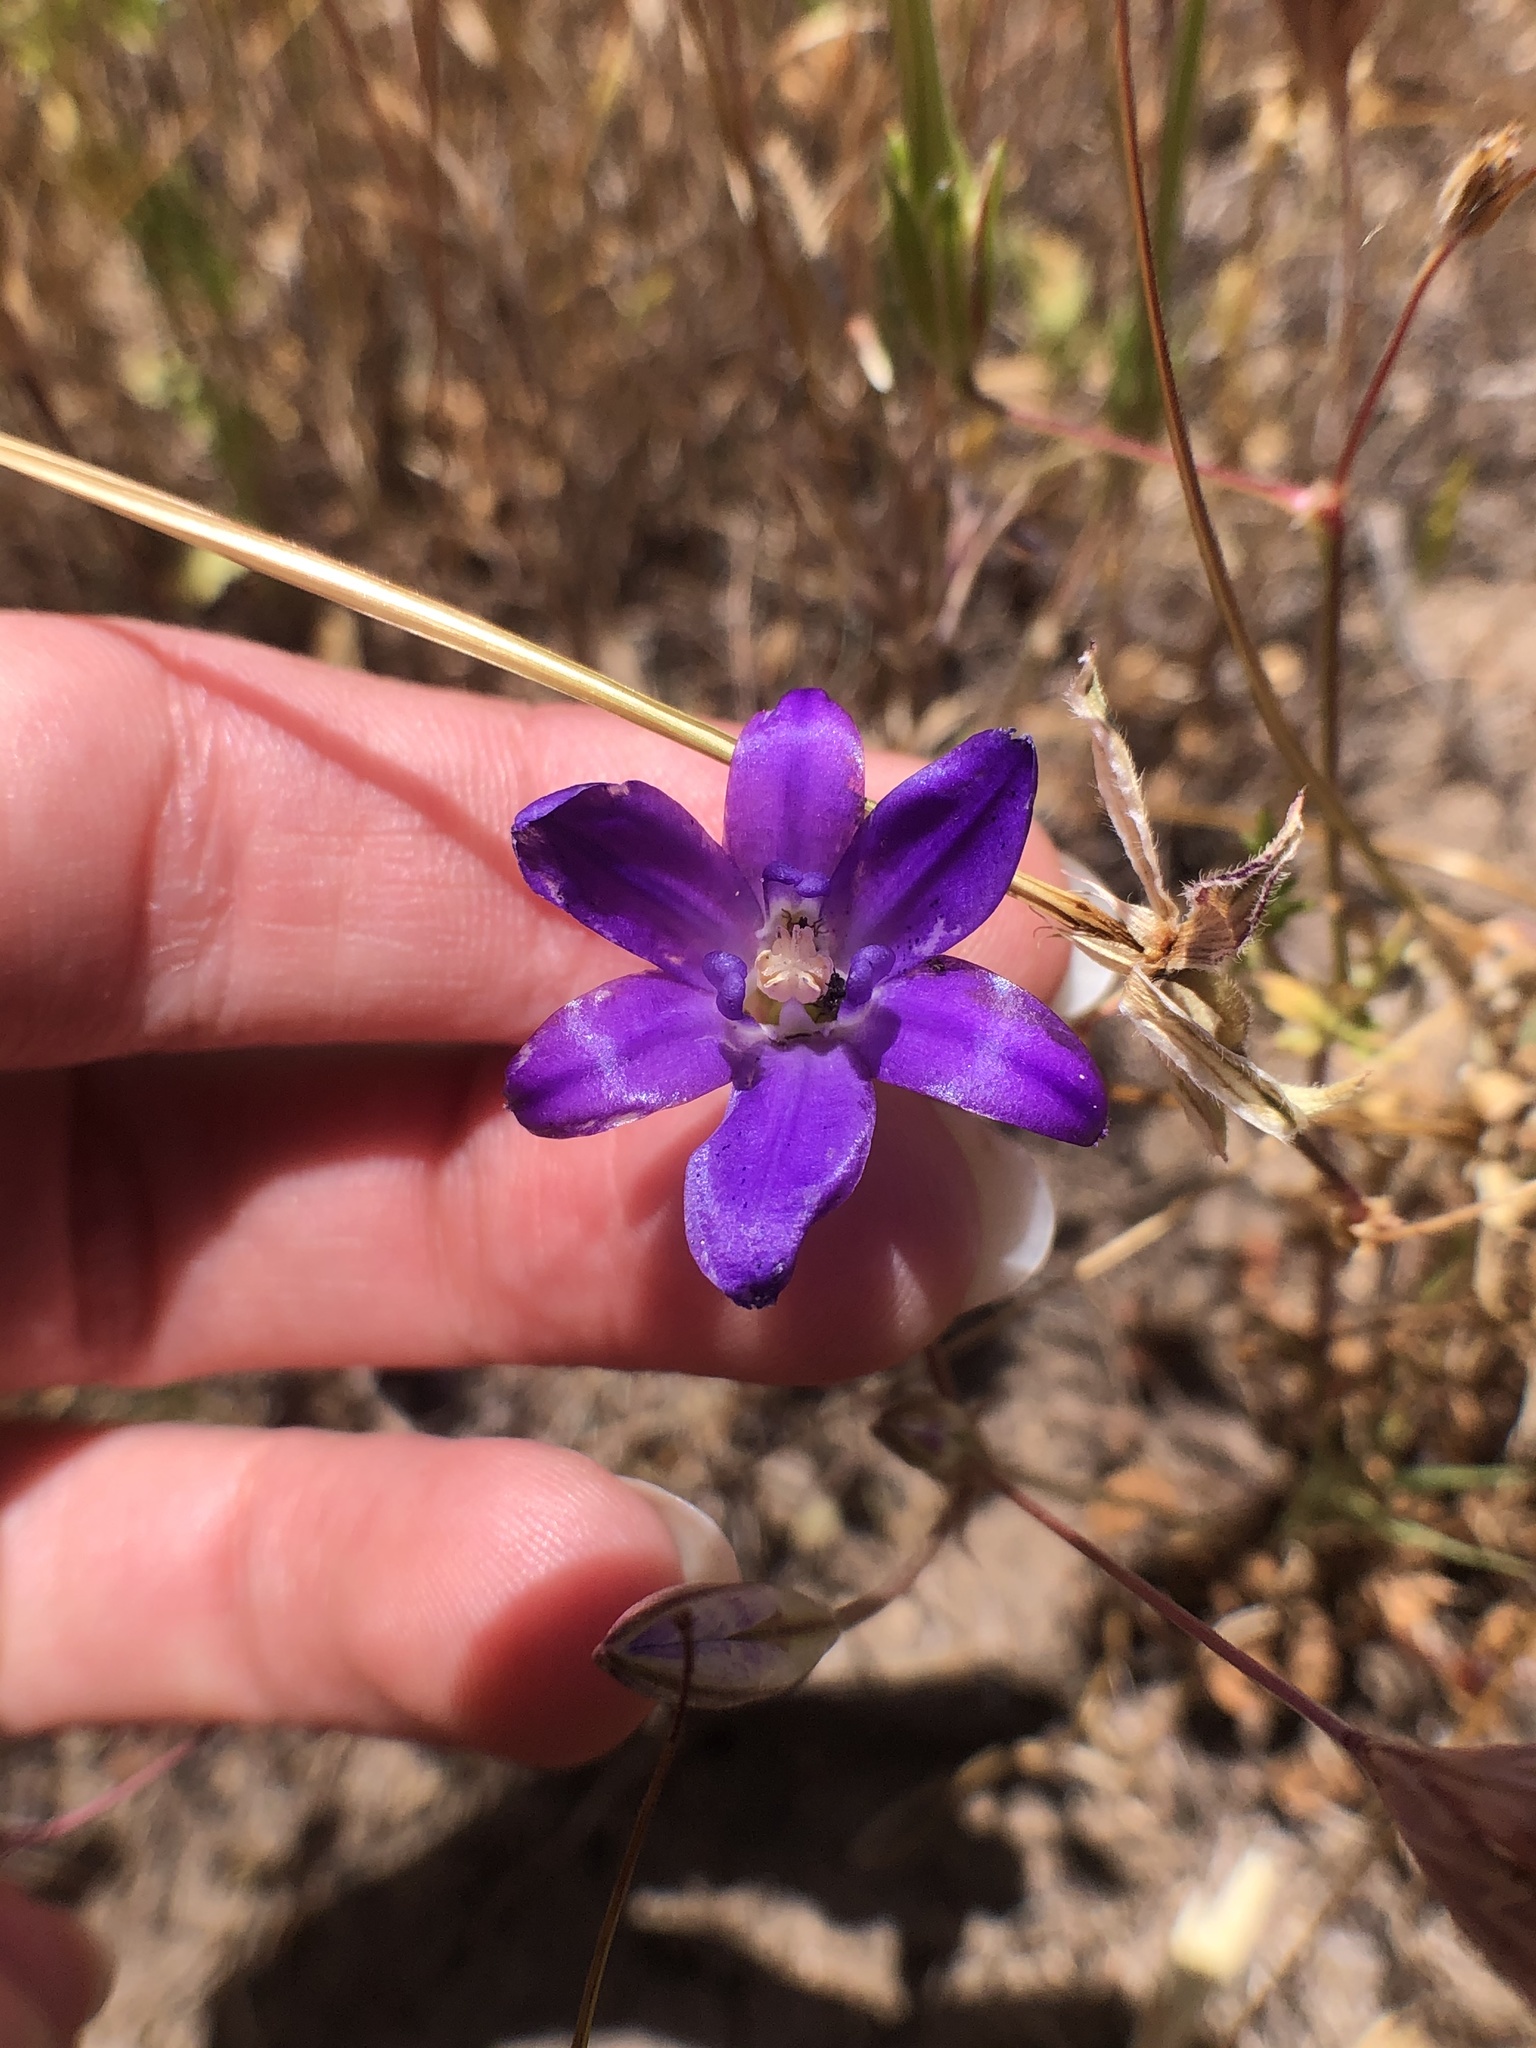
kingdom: Plantae
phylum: Tracheophyta
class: Liliopsida
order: Asparagales
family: Asparagaceae
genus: Brodiaea
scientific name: Brodiaea terrestris
